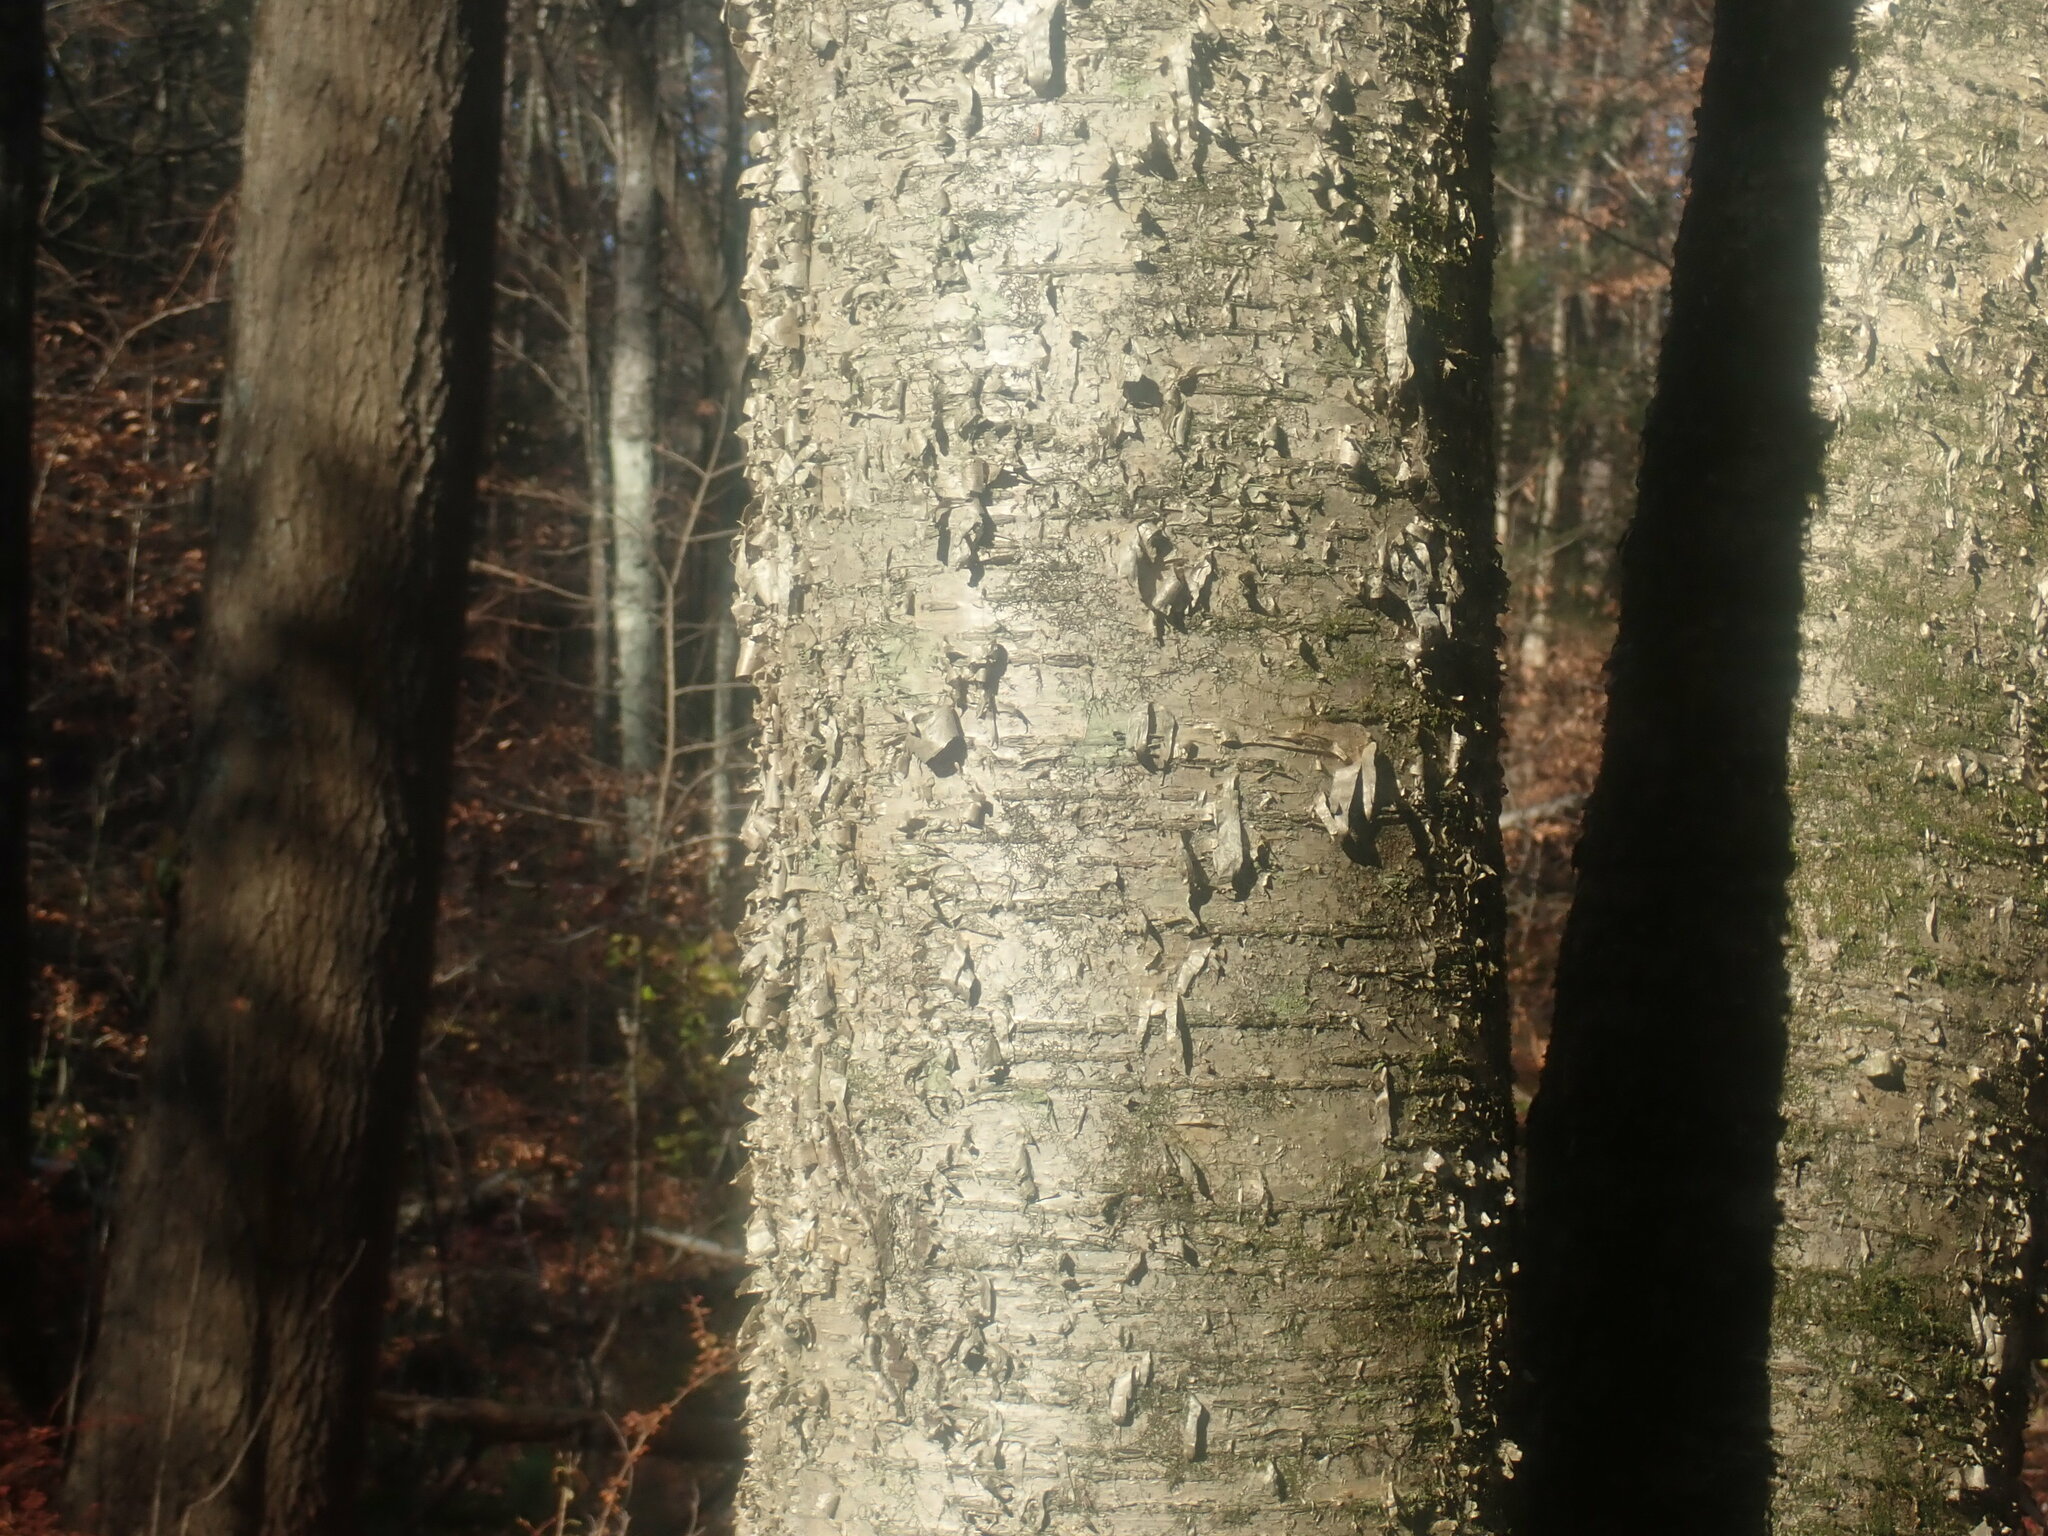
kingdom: Plantae
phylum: Tracheophyta
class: Magnoliopsida
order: Fagales
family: Betulaceae
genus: Betula
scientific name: Betula alleghaniensis
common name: Yellow birch
